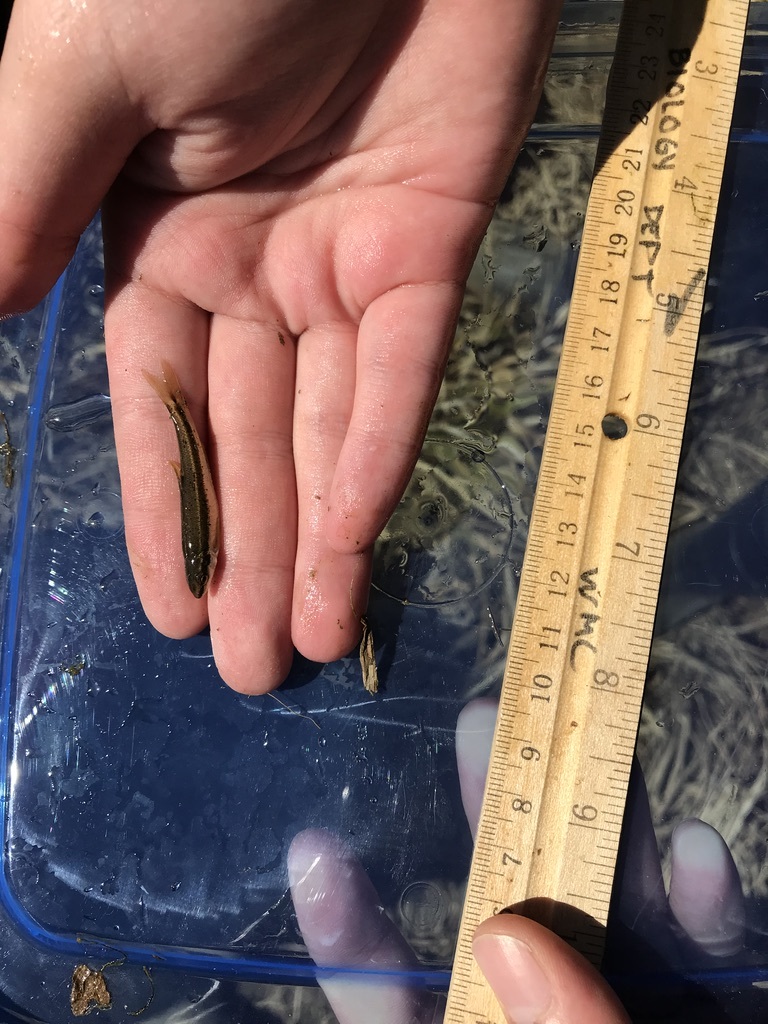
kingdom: Animalia
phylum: Chordata
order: Cypriniformes
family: Cyprinidae
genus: Rhinichthys
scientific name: Rhinichthys atratulus
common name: Eastern blacknose dace
